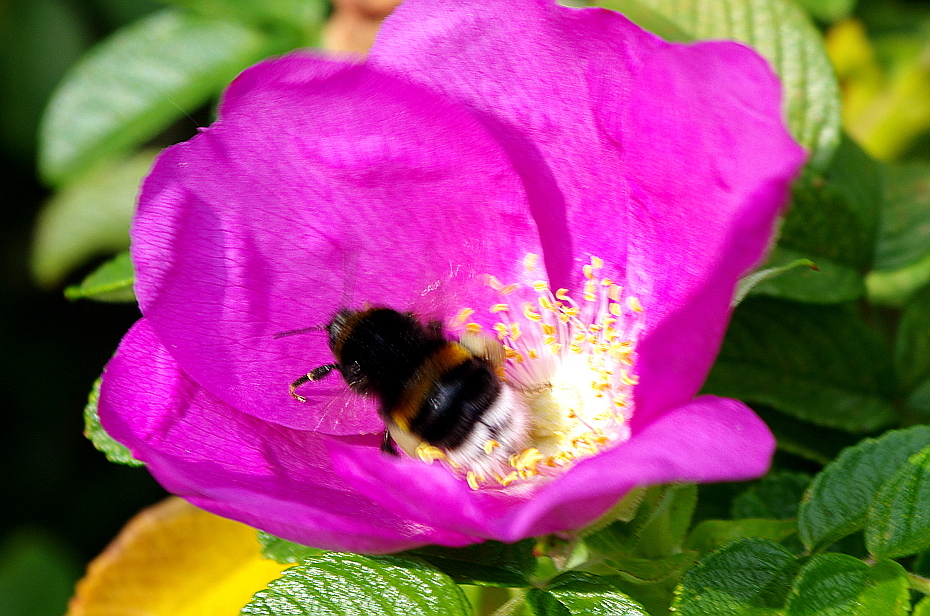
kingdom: Animalia
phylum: Arthropoda
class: Insecta
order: Hymenoptera
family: Apidae
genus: Bombus
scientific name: Bombus terrestris
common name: Buff-tailed bumblebee
